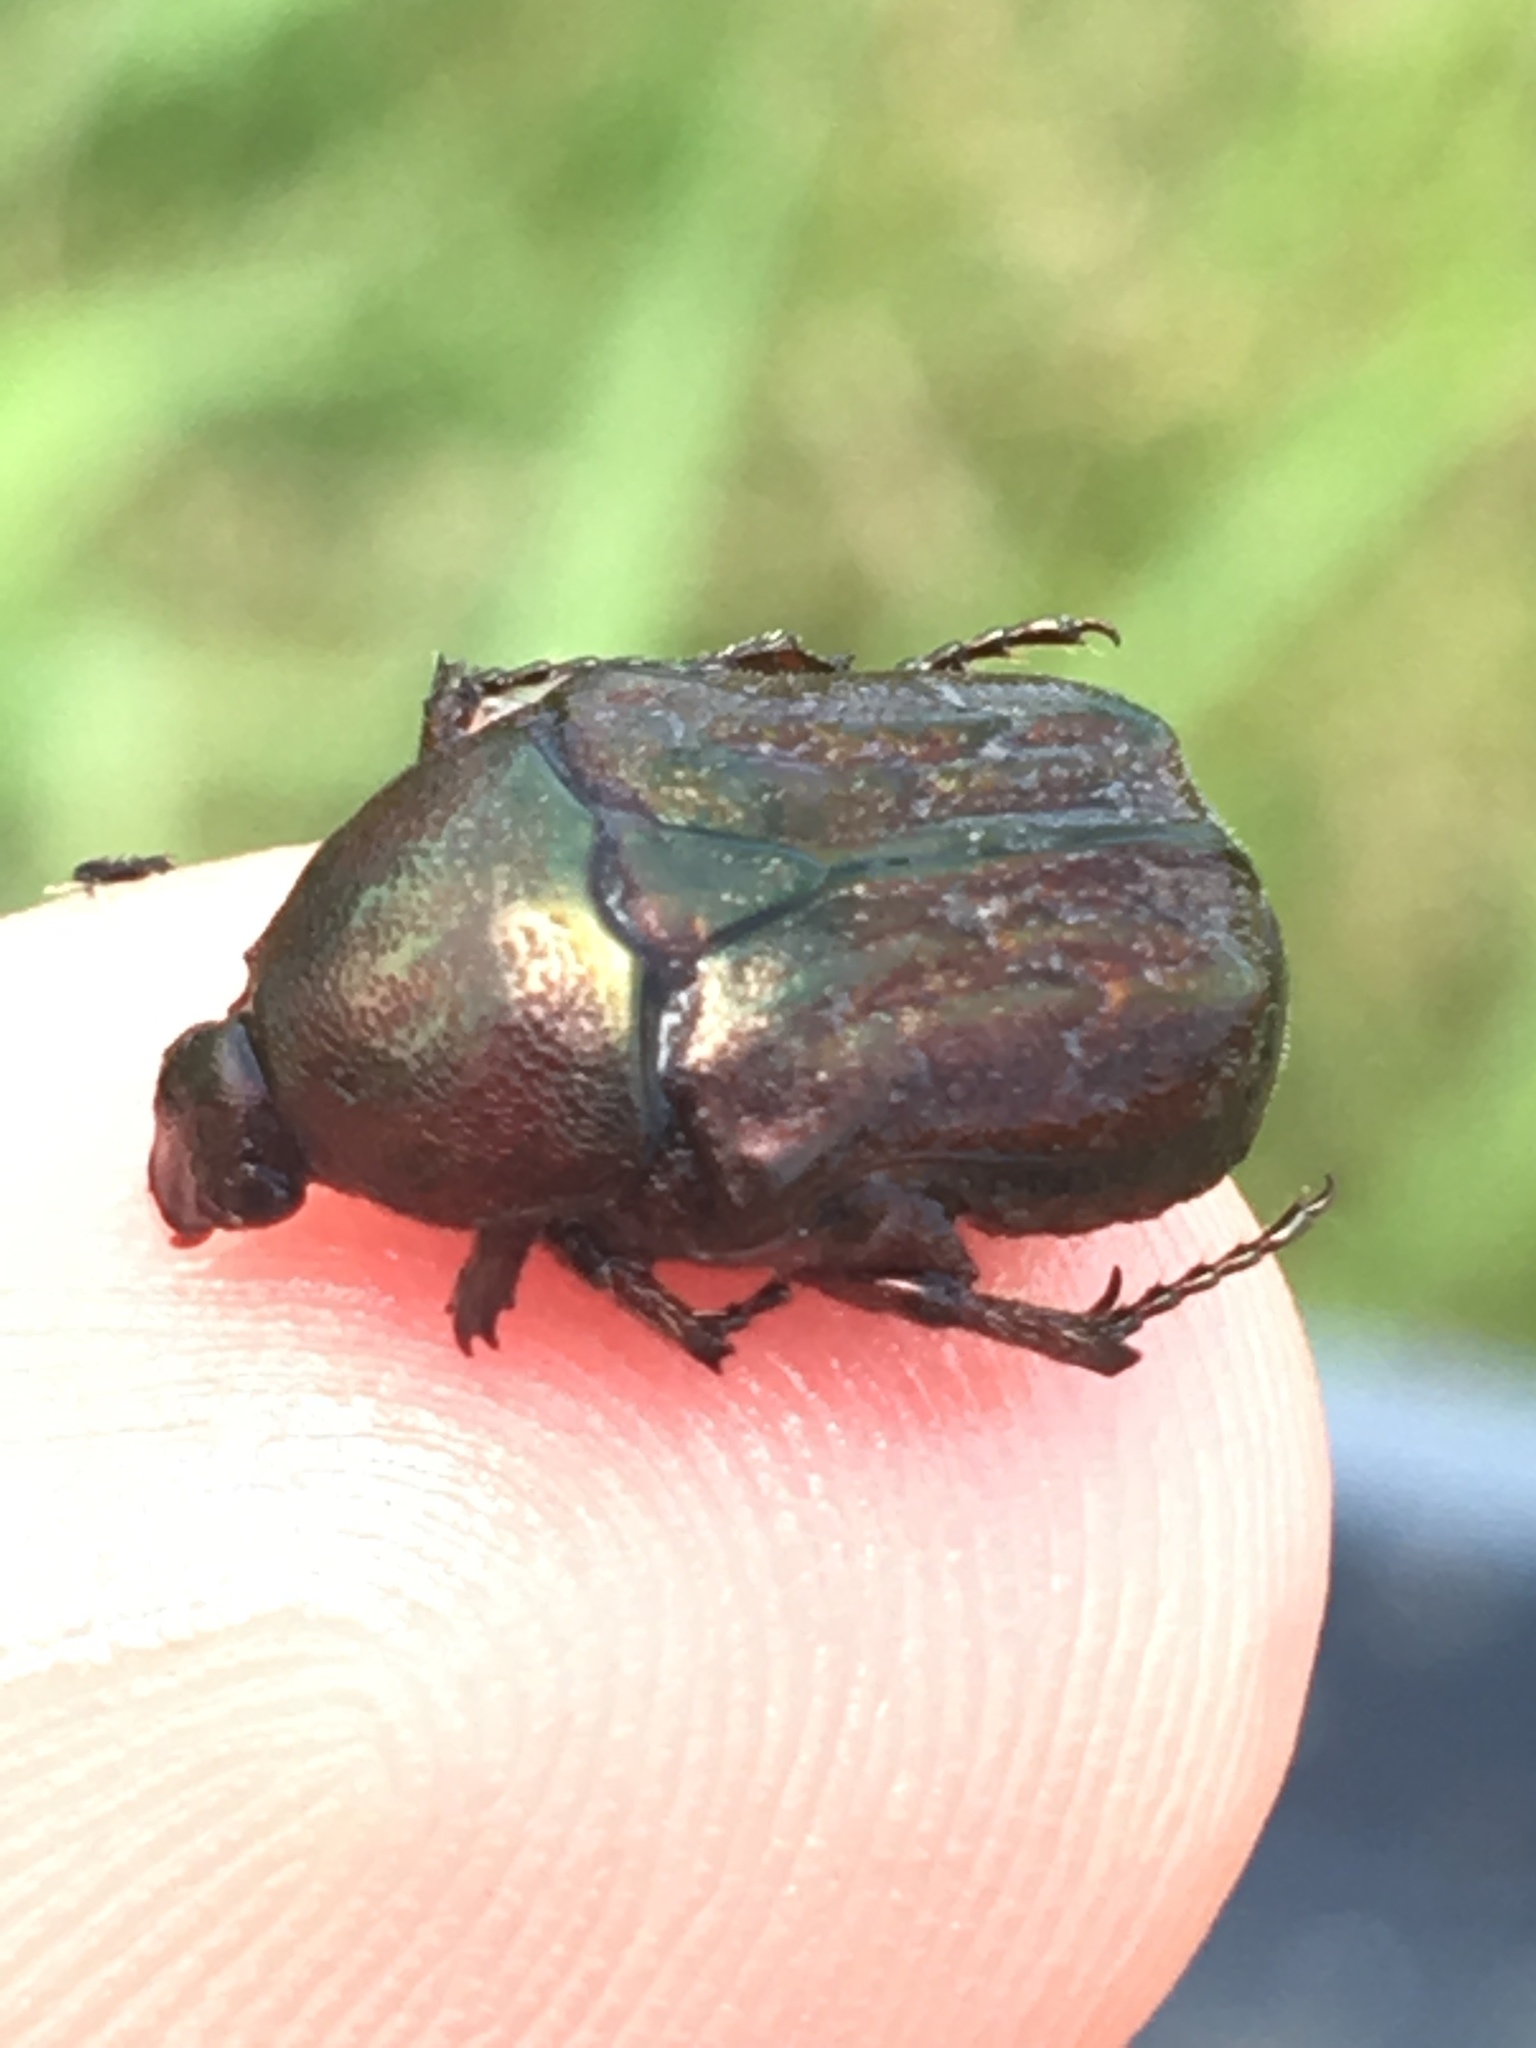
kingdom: Animalia
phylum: Arthropoda
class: Insecta
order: Coleoptera
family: Scarabaeidae
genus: Euphoria
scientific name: Euphoria sepulcralis
